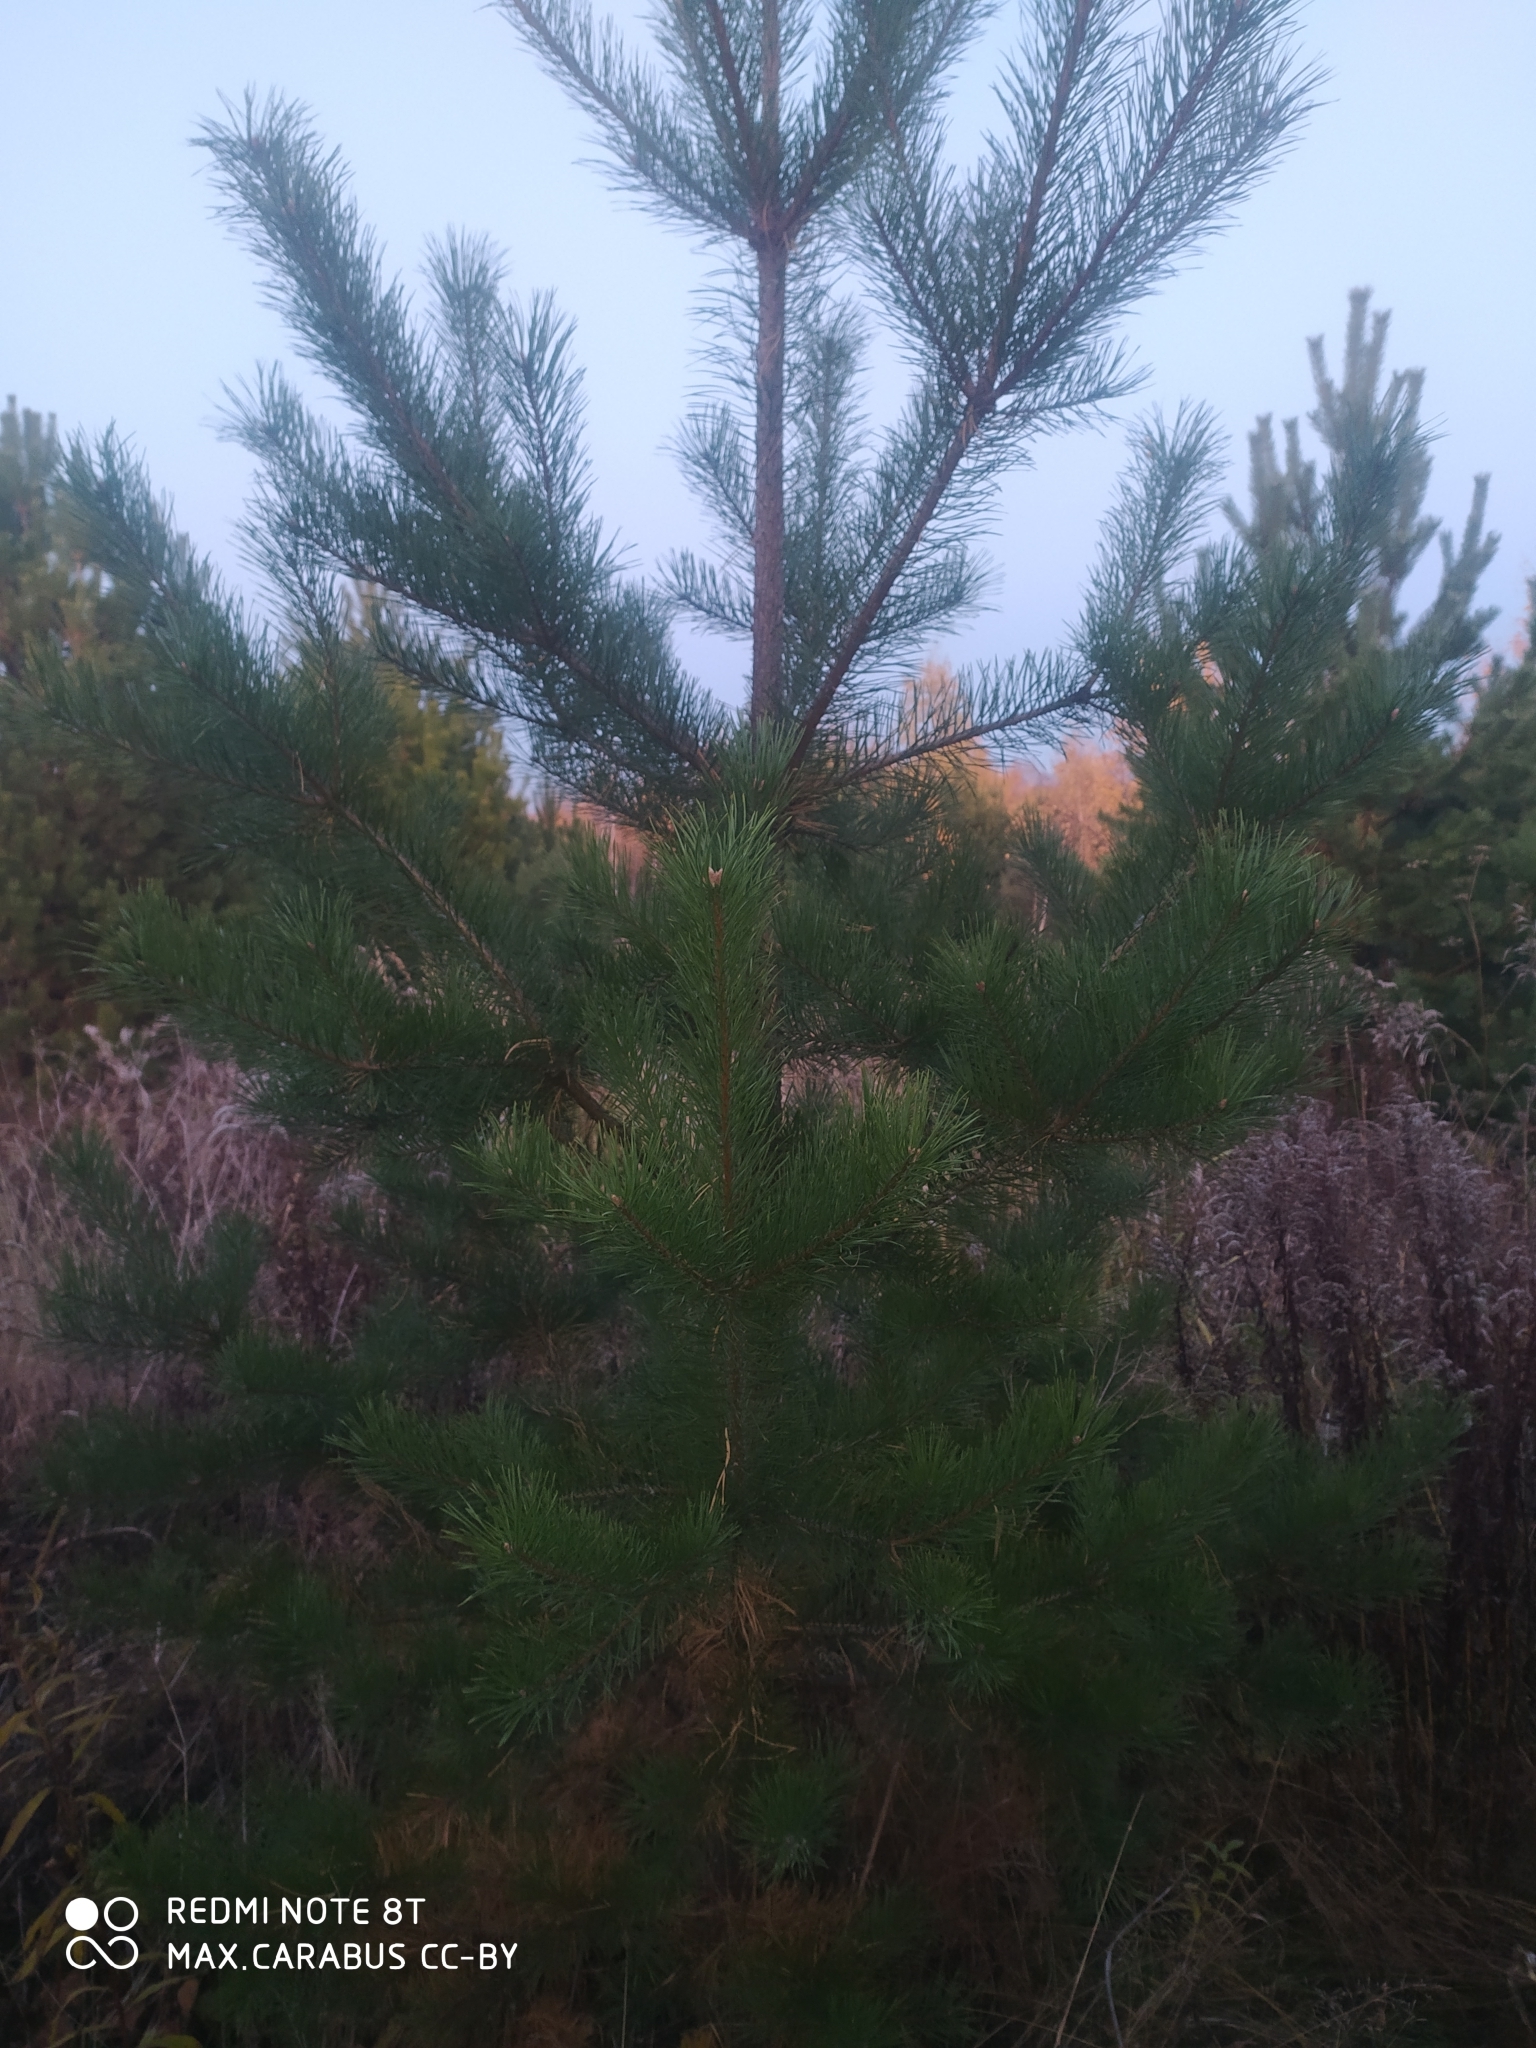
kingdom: Plantae
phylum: Tracheophyta
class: Pinopsida
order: Pinales
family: Pinaceae
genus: Pinus
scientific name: Pinus sylvestris
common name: Scots pine
